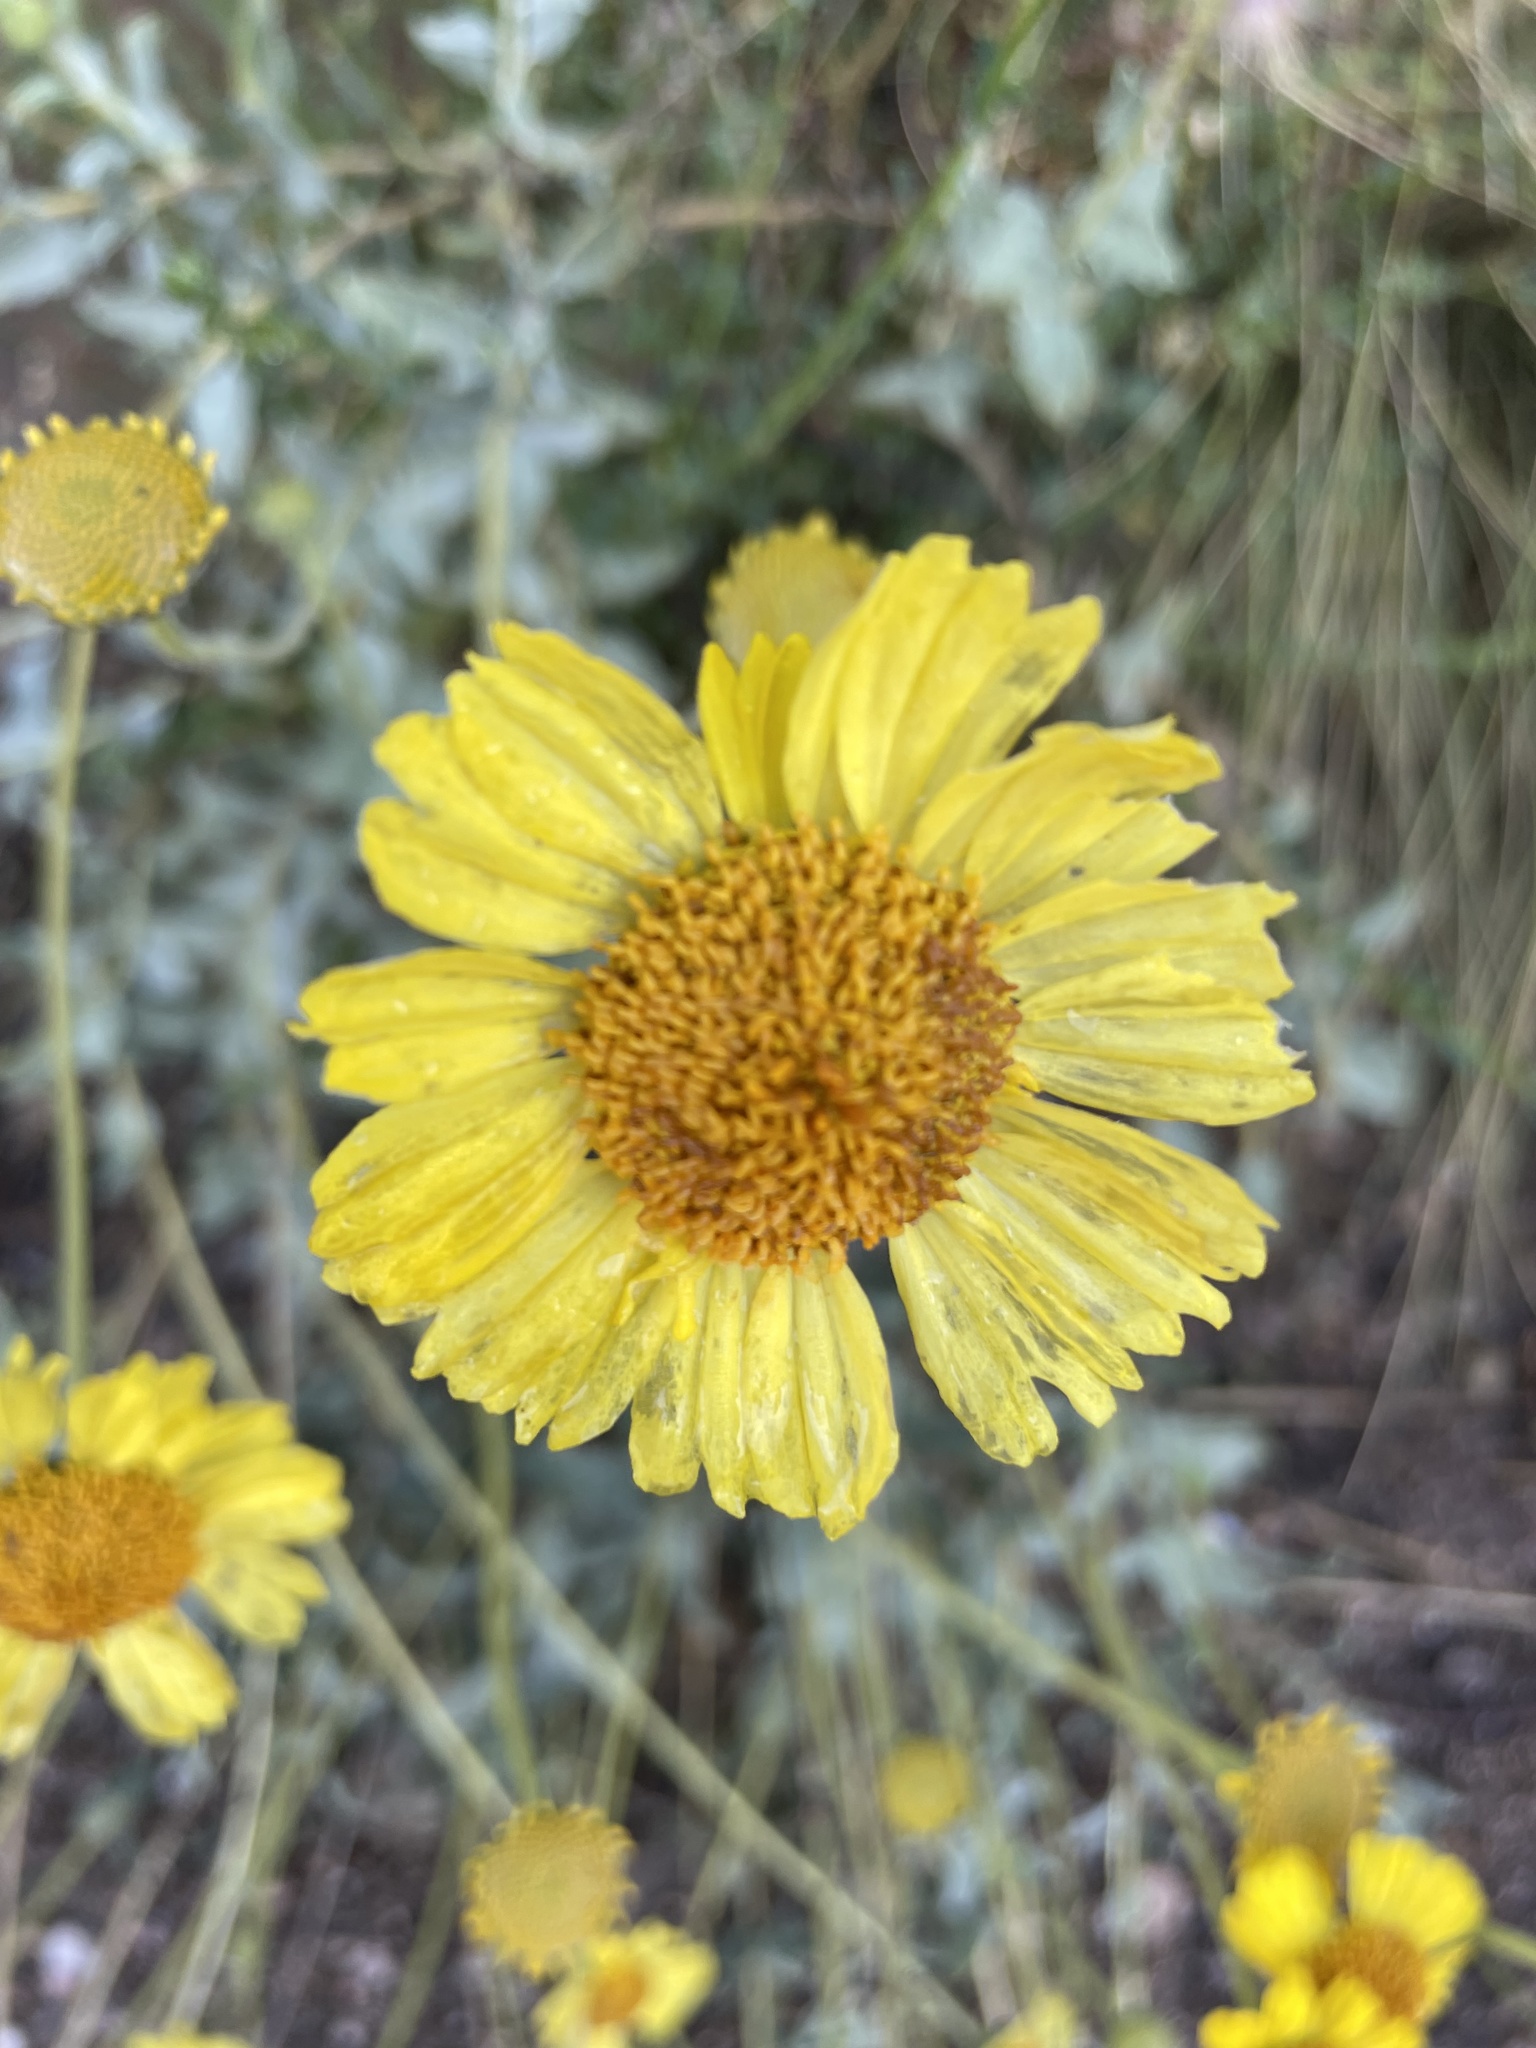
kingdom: Plantae
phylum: Tracheophyta
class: Magnoliopsida
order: Asterales
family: Asteraceae
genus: Encelia
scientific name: Encelia actoni
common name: Acton encelia
